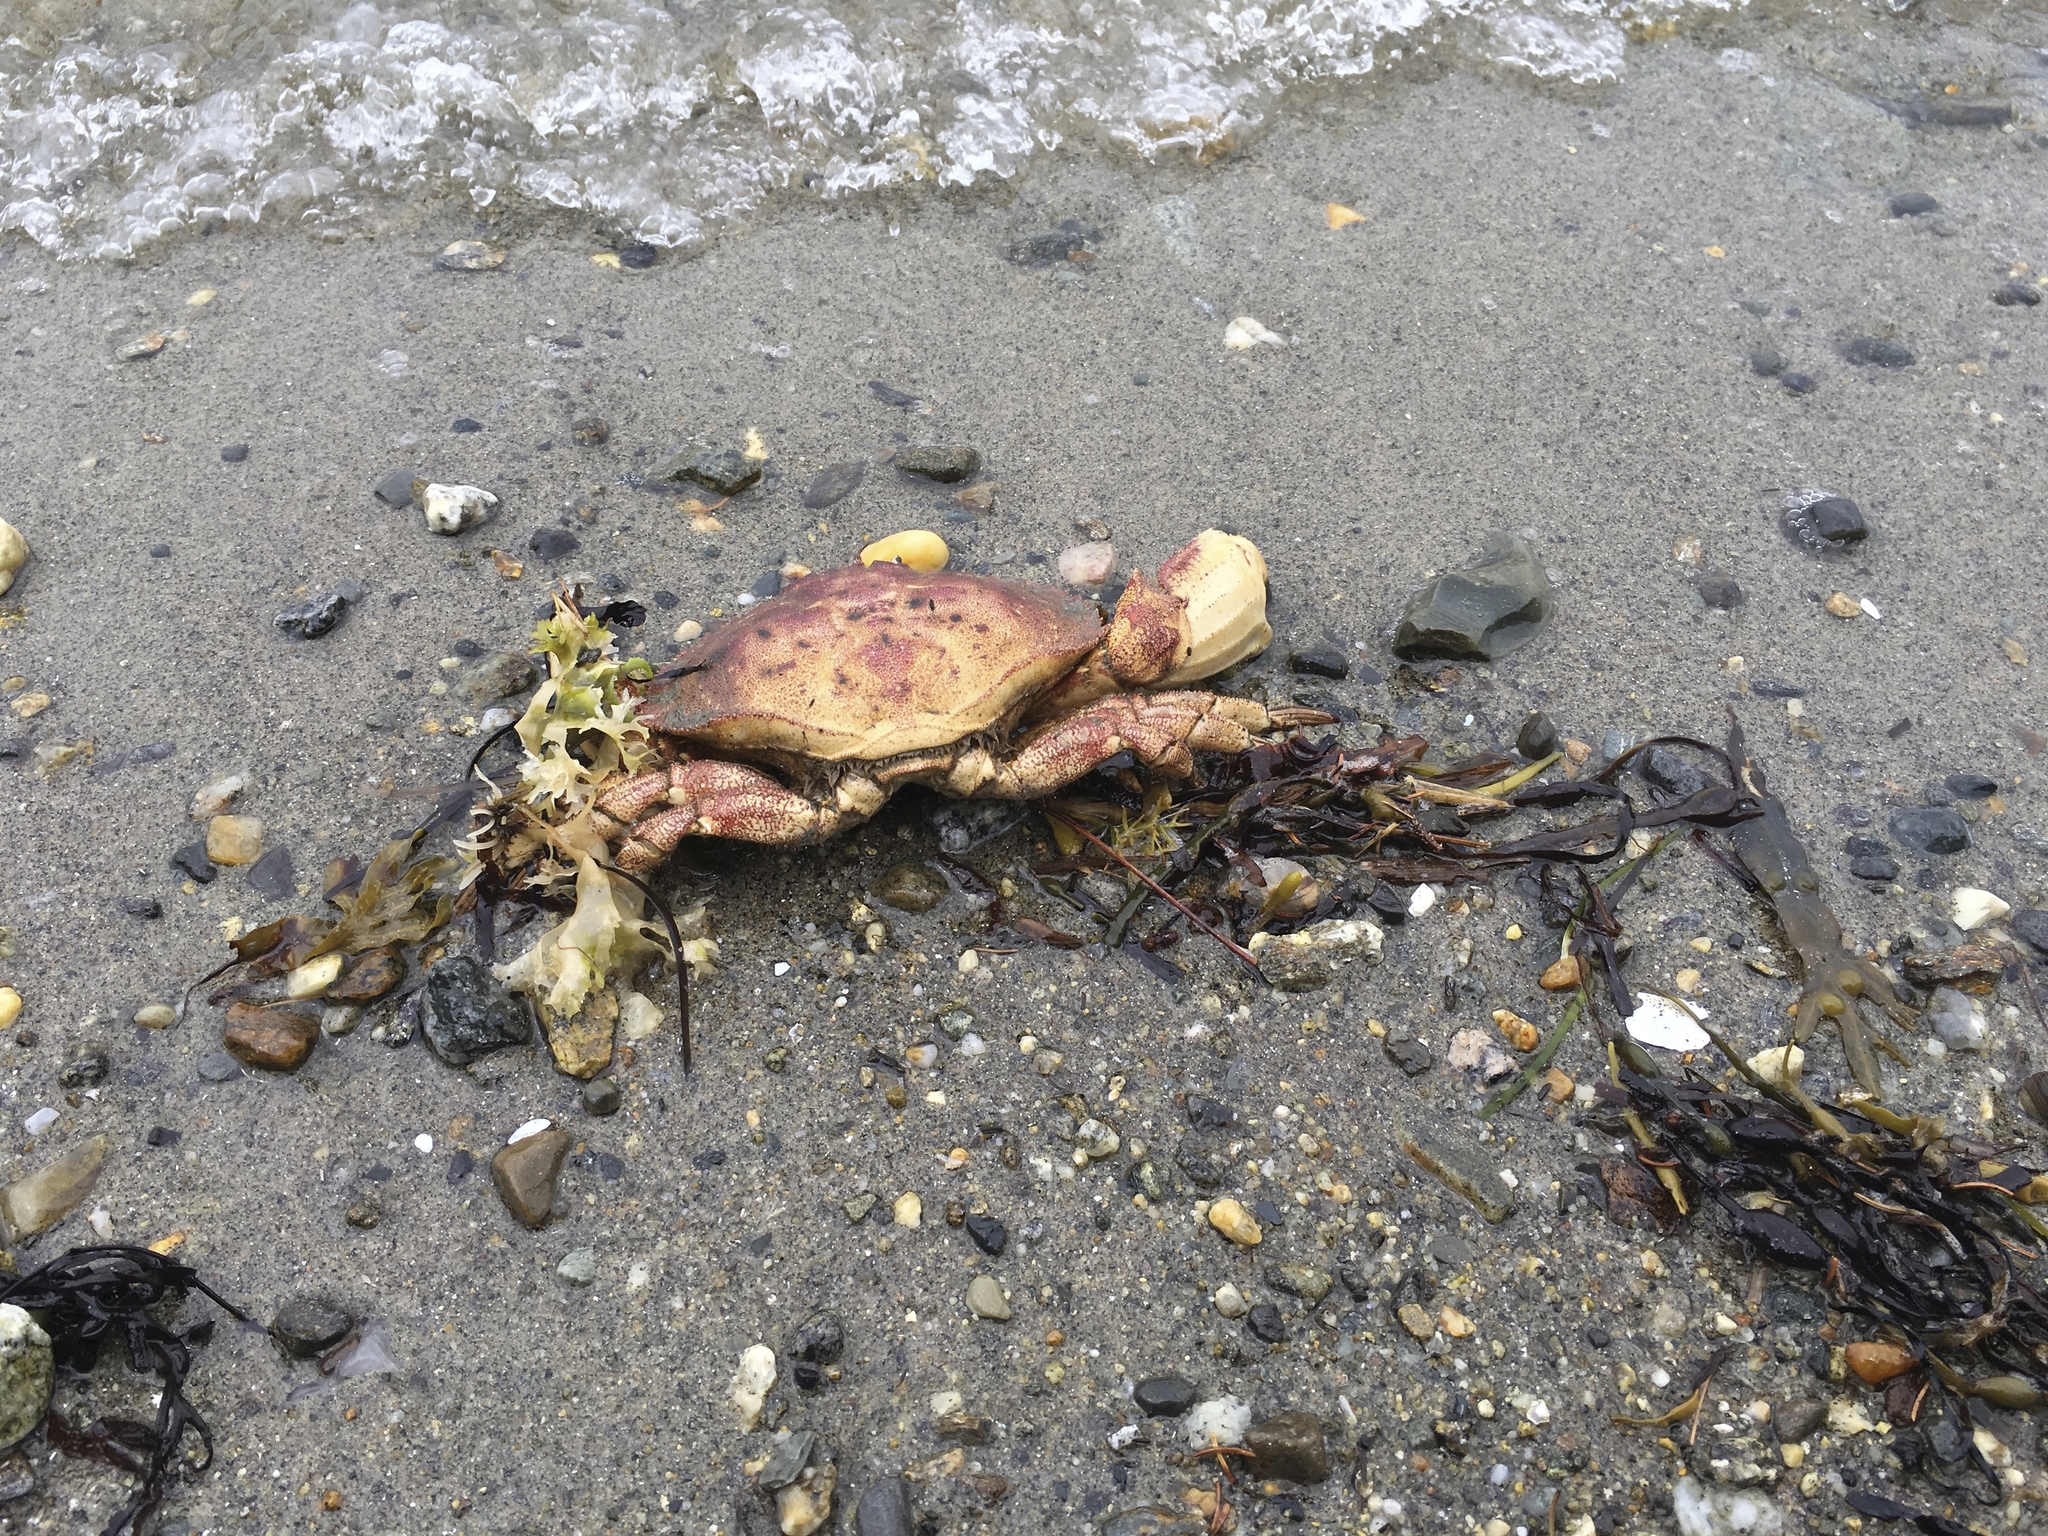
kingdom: Animalia
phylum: Arthropoda
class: Malacostraca
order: Decapoda
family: Cancridae
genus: Cancer
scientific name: Cancer borealis
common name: Jonah crab
